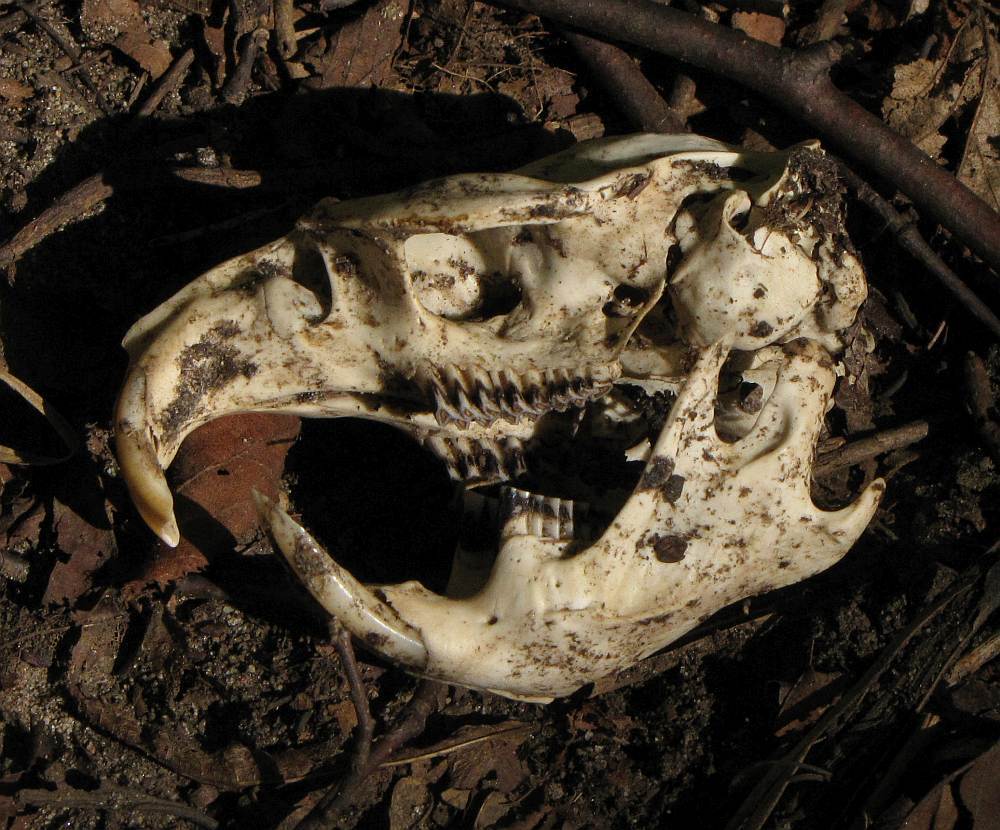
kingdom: Animalia
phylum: Chordata
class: Mammalia
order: Rodentia
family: Cricetidae
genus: Ondatra
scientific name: Ondatra zibethicus
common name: Muskrat
